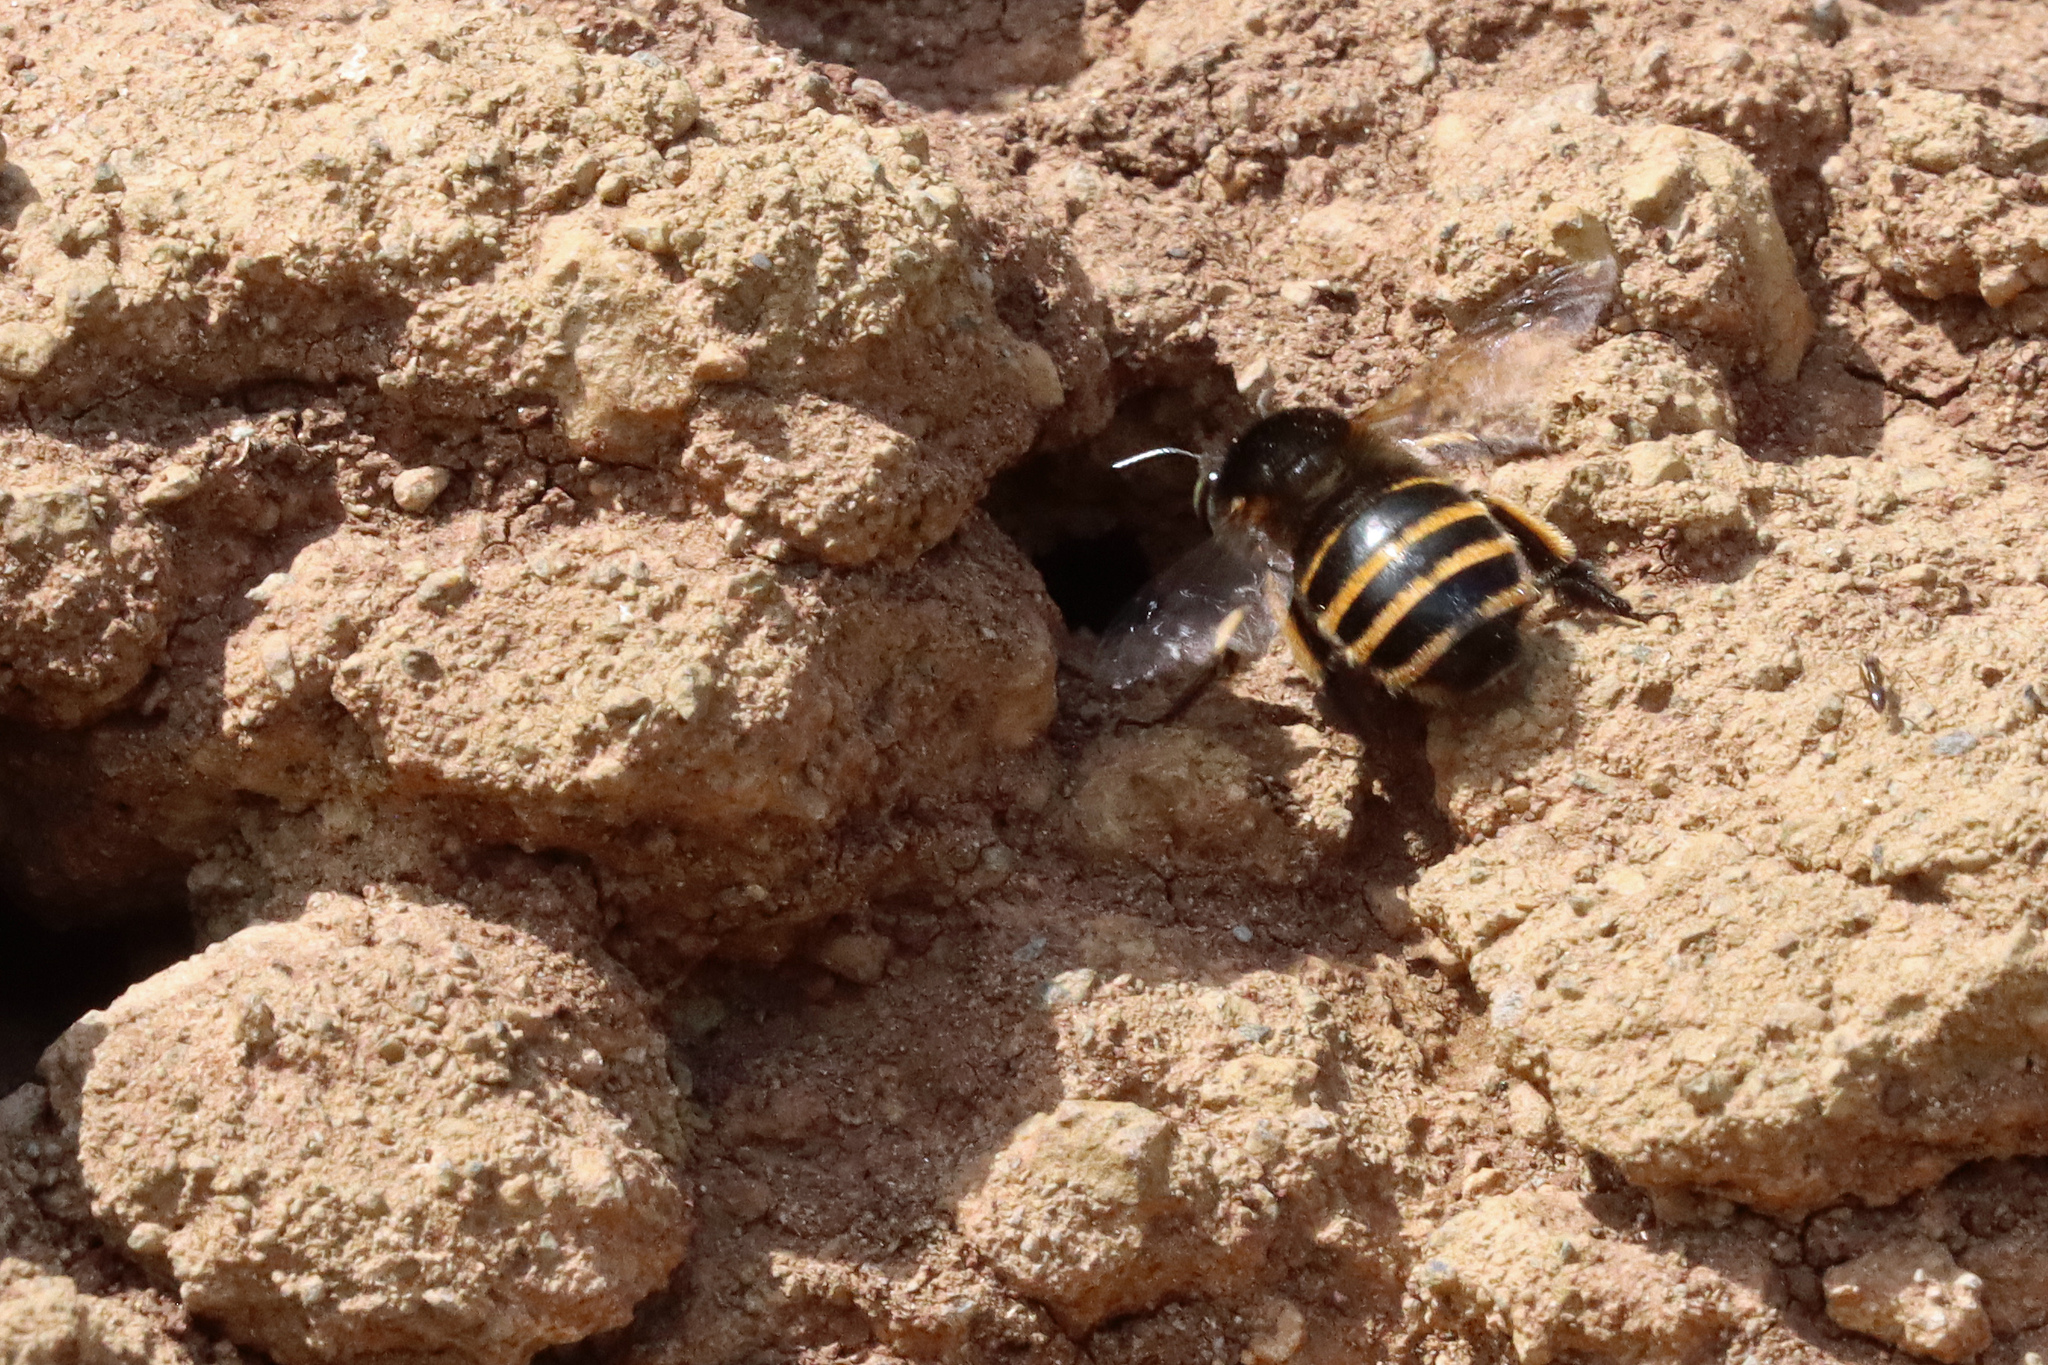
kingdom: Animalia
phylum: Arthropoda
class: Insecta
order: Hymenoptera
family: Apidae
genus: Amegilla
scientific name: Amegilla quadrifasciata
